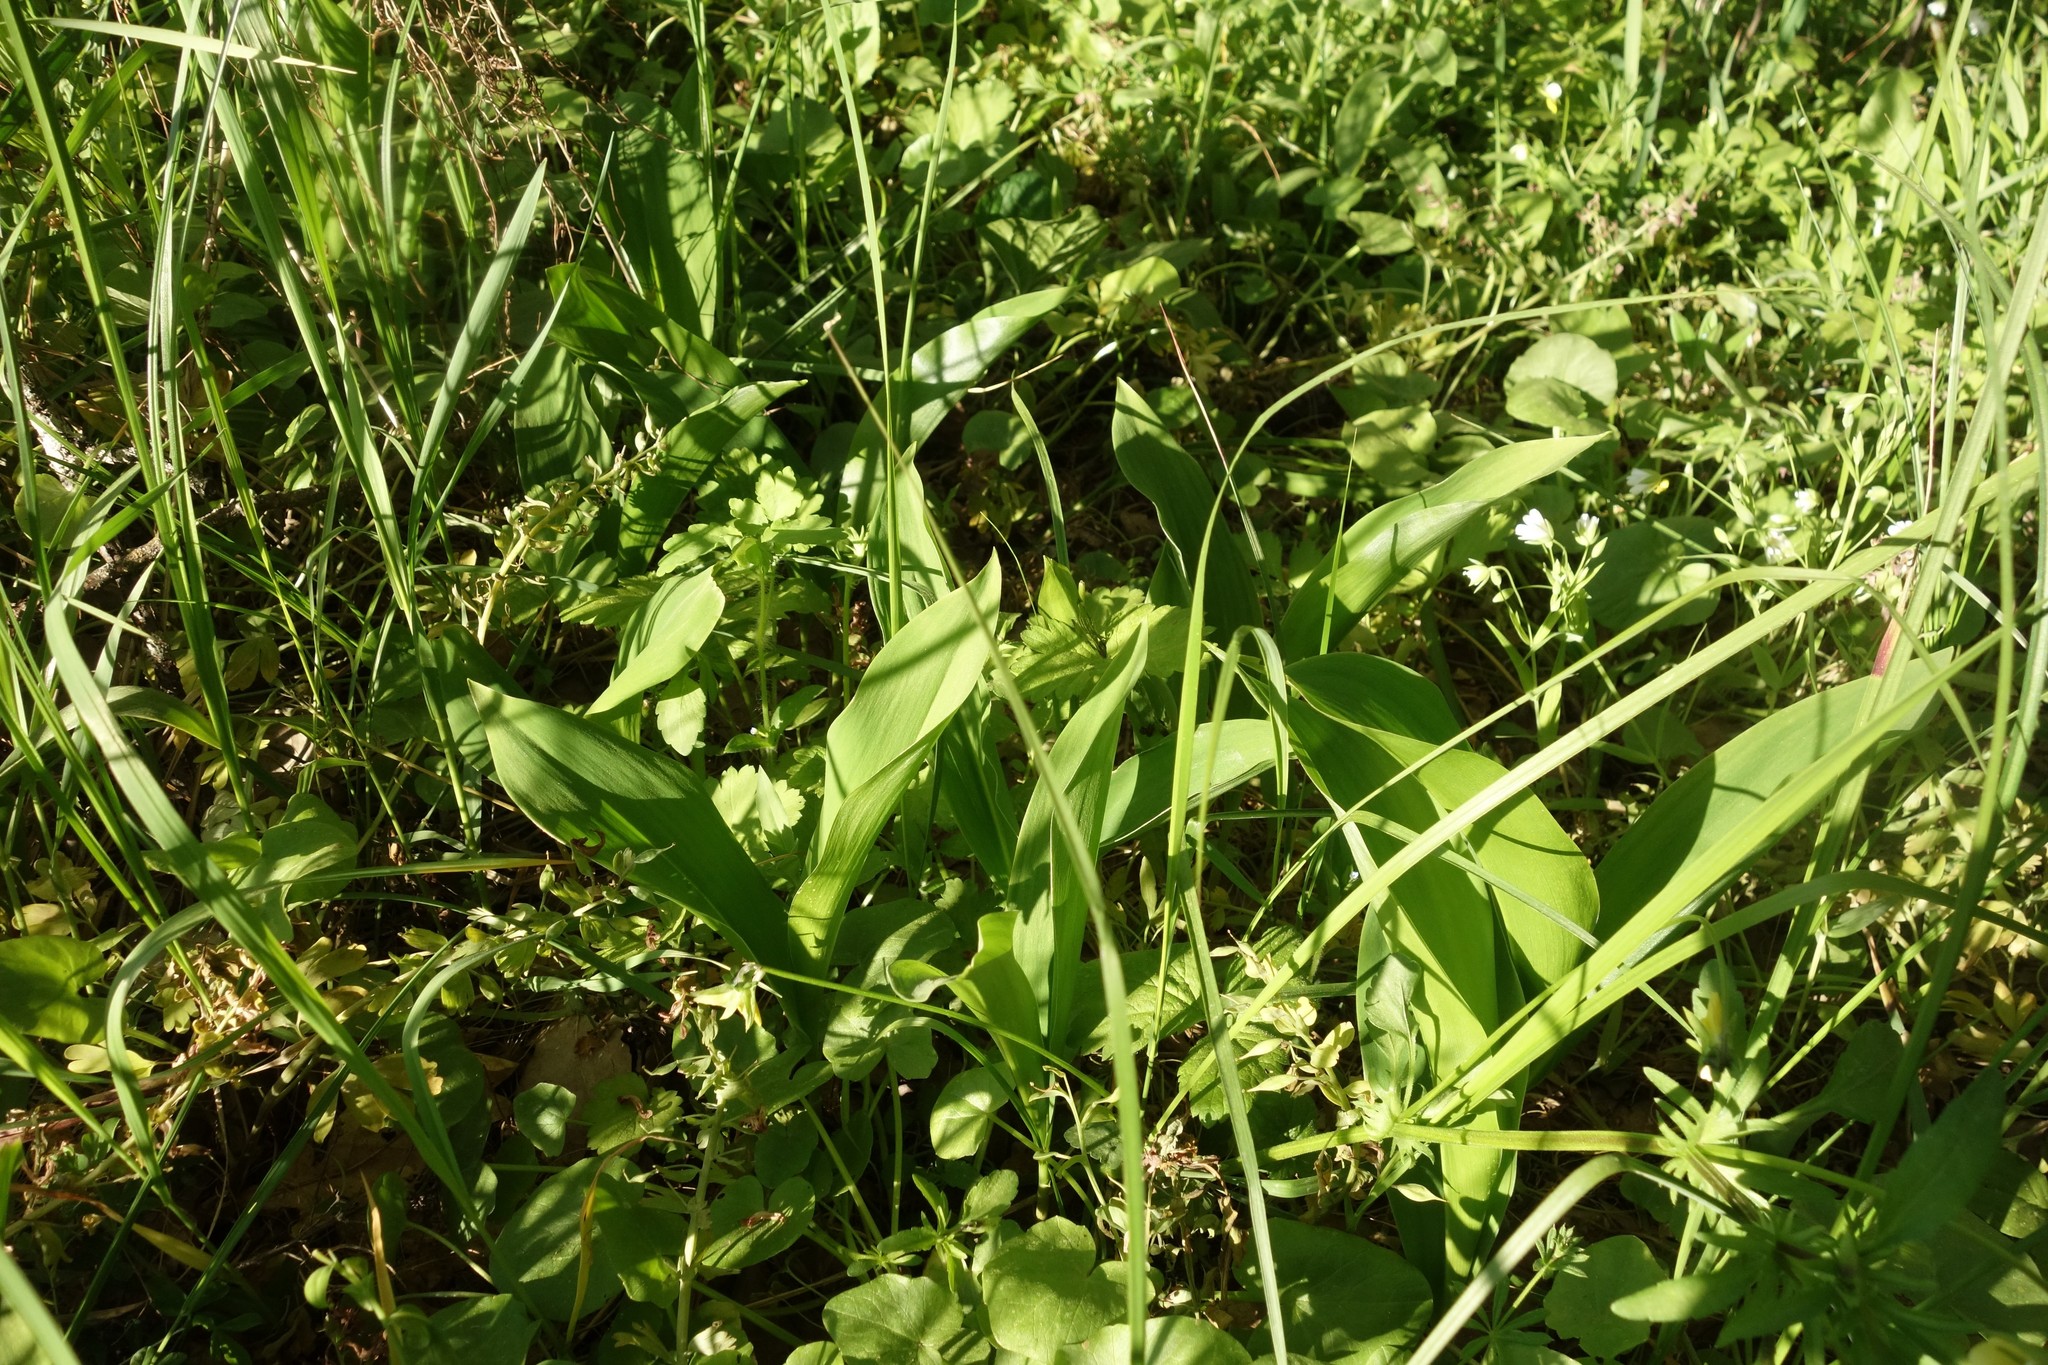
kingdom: Plantae
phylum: Tracheophyta
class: Liliopsida
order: Asparagales
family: Asparagaceae
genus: Convallaria
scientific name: Convallaria majalis
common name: Lily-of-the-valley
